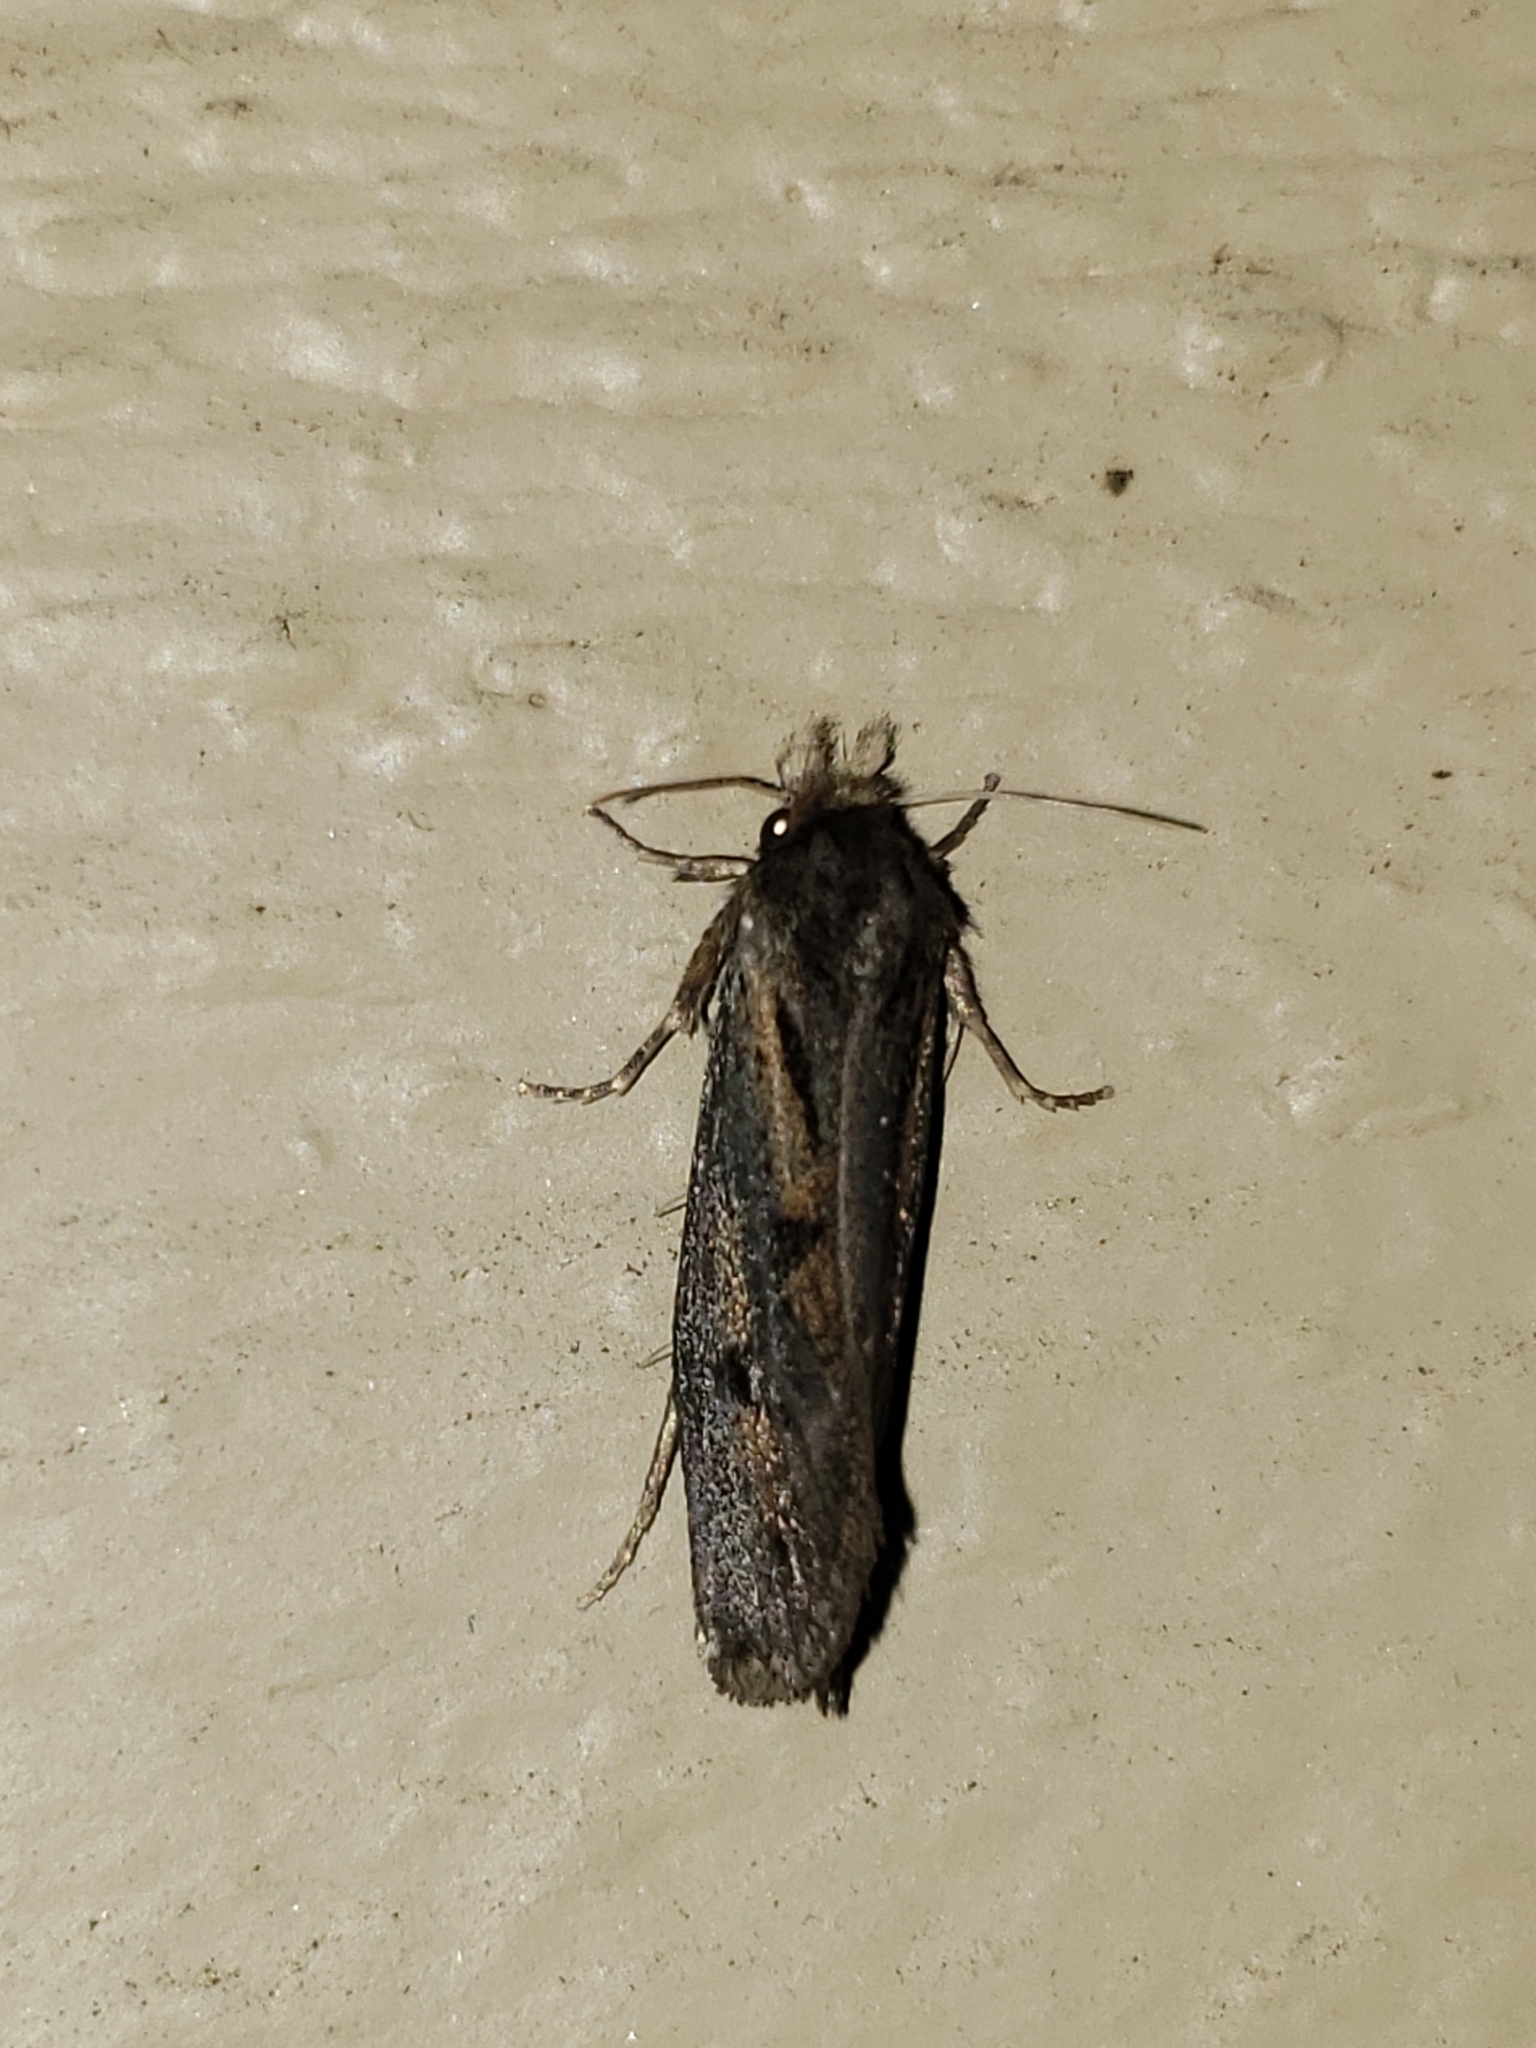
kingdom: Animalia
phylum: Arthropoda
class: Insecta
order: Lepidoptera
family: Tineidae
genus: Acrolophus
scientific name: Acrolophus popeanella
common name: Clemens' grass tubeworm moth
